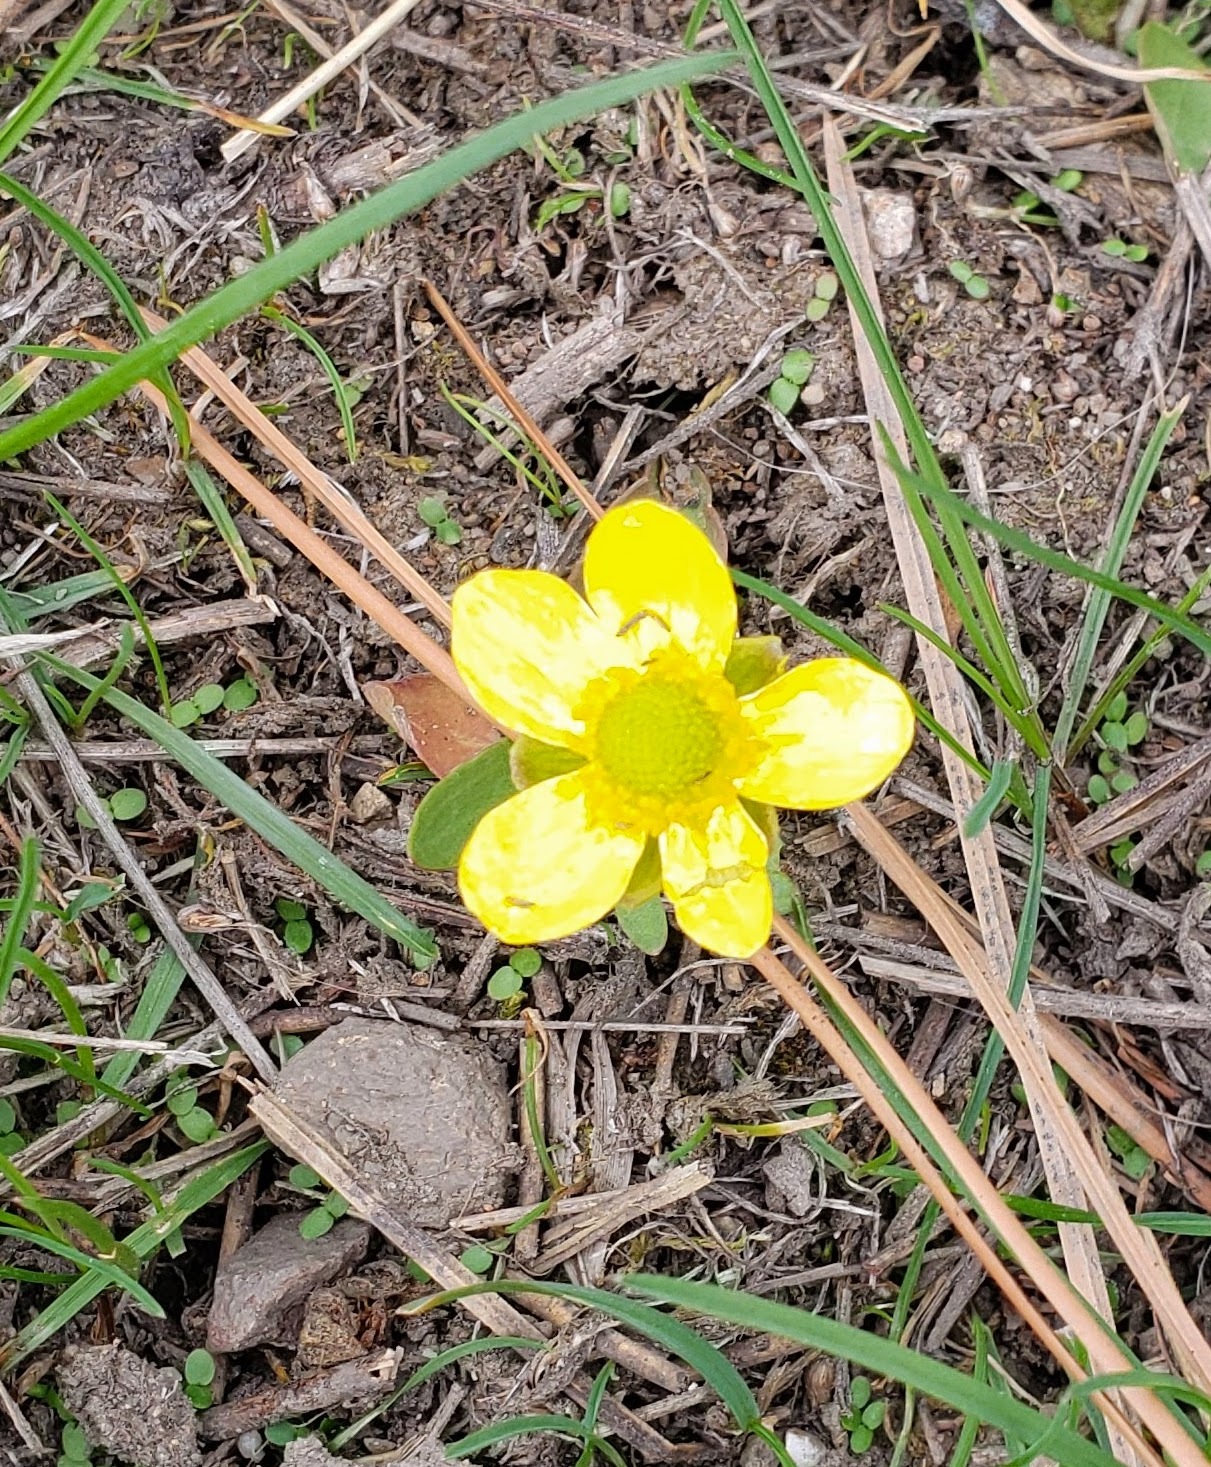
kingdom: Plantae
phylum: Tracheophyta
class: Magnoliopsida
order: Ranunculales
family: Ranunculaceae
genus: Ranunculus
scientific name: Ranunculus glaberrimus
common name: Sagebrush buttercup
